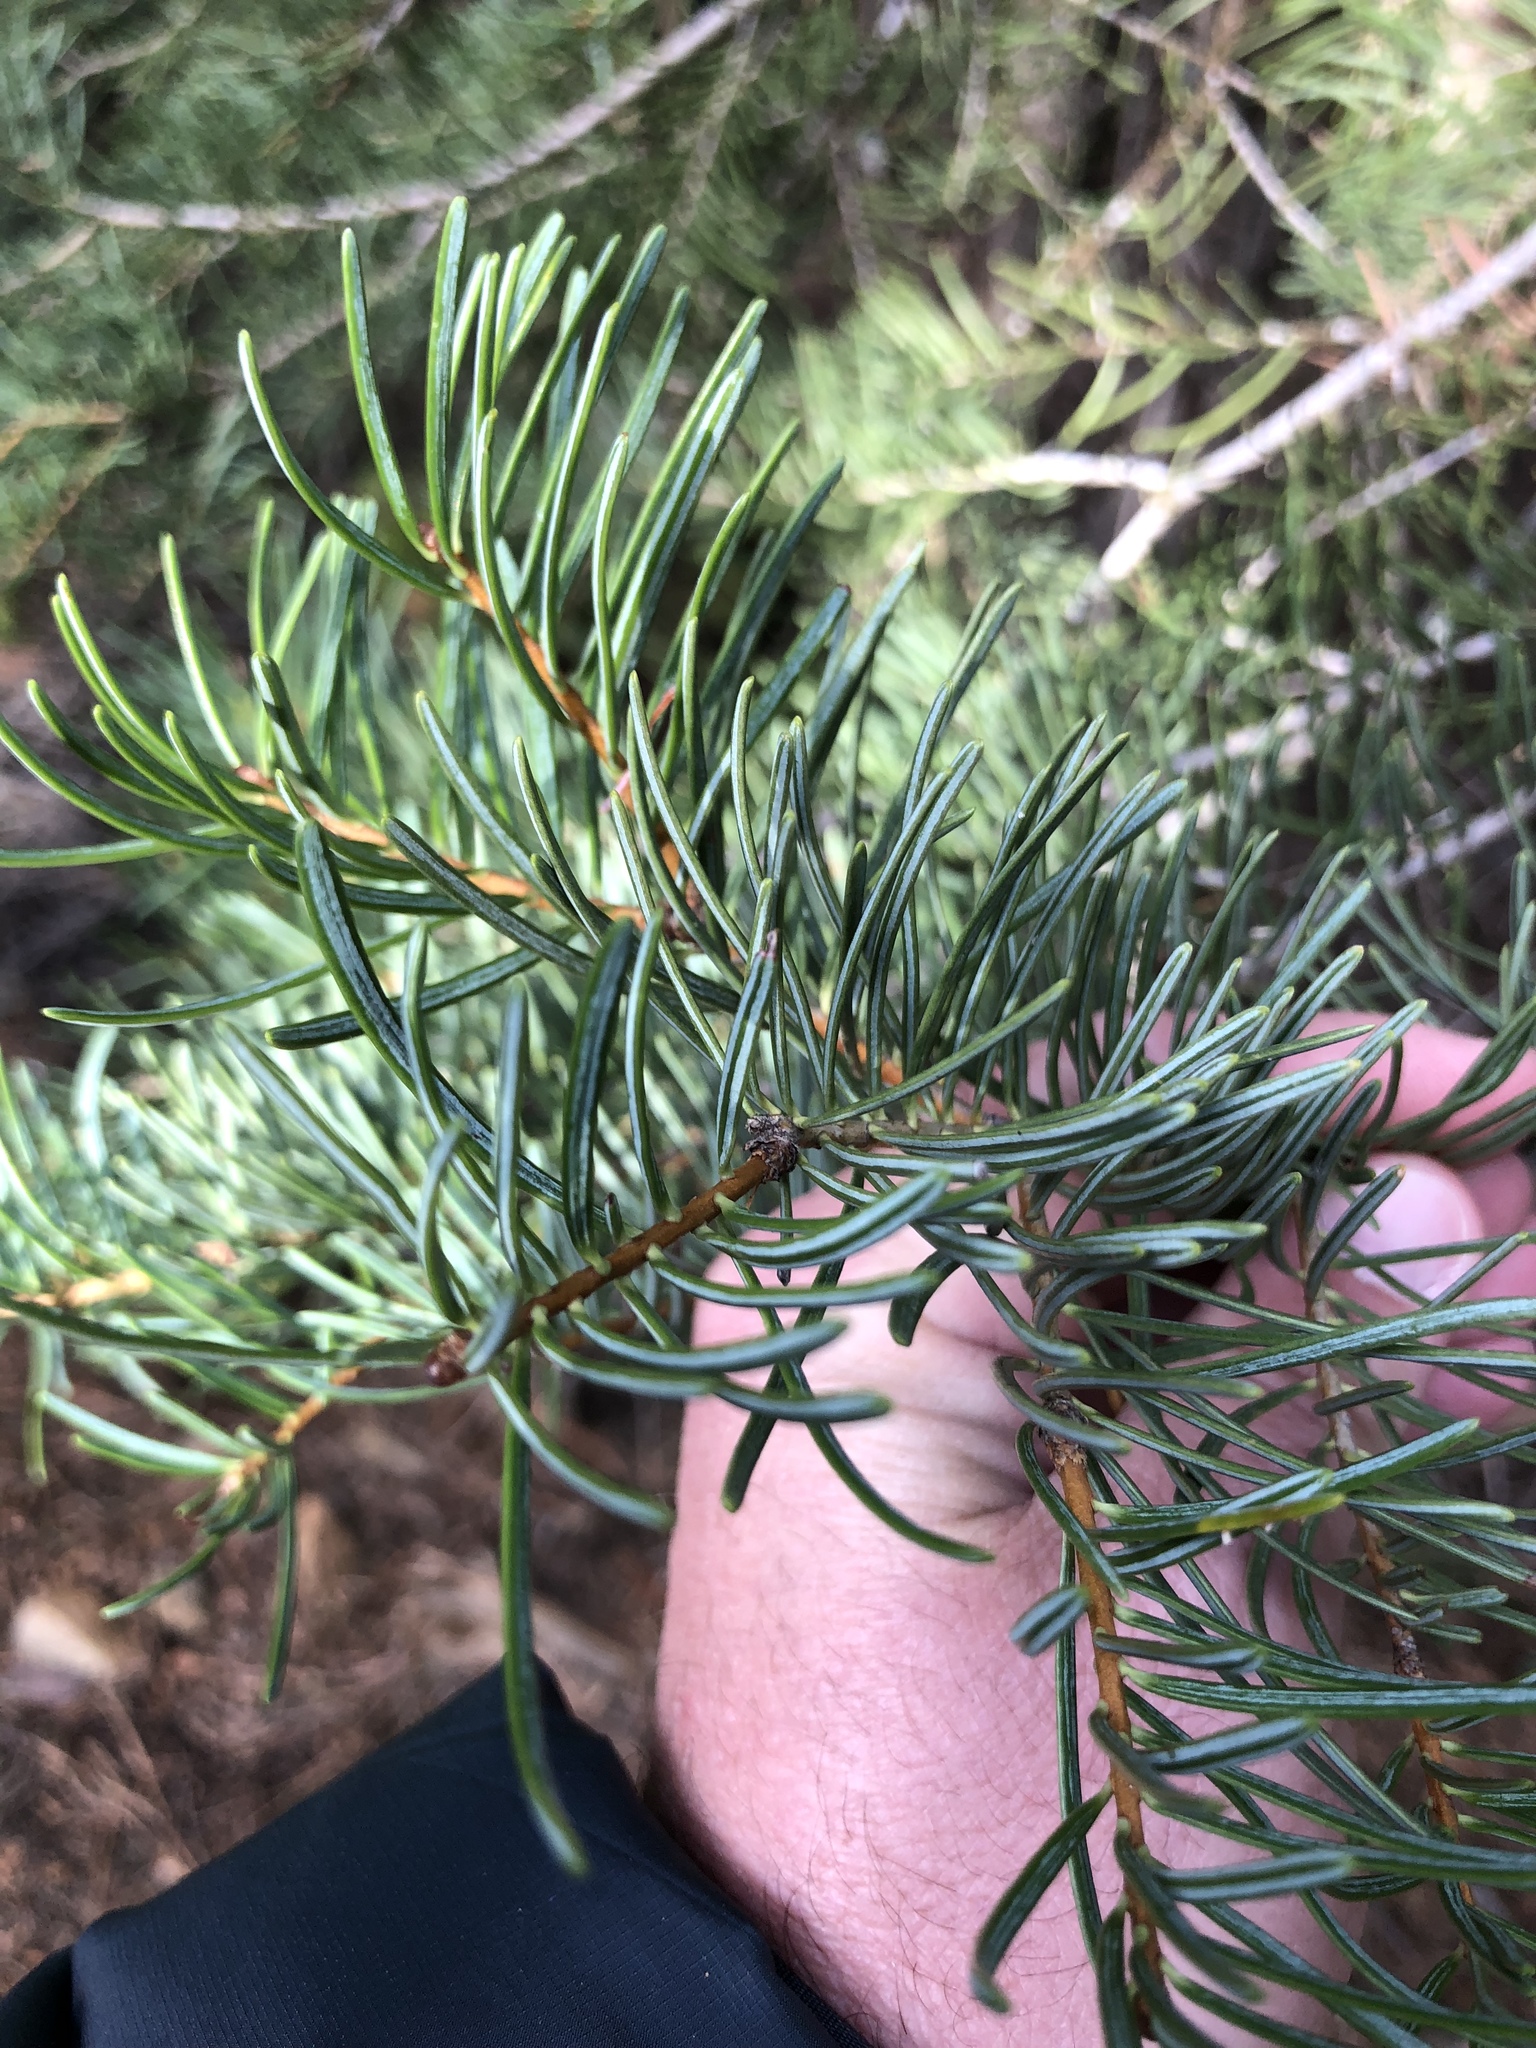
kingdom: Plantae
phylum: Tracheophyta
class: Pinopsida
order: Pinales
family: Pinaceae
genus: Abies
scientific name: Abies concolor
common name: Colorado fir
